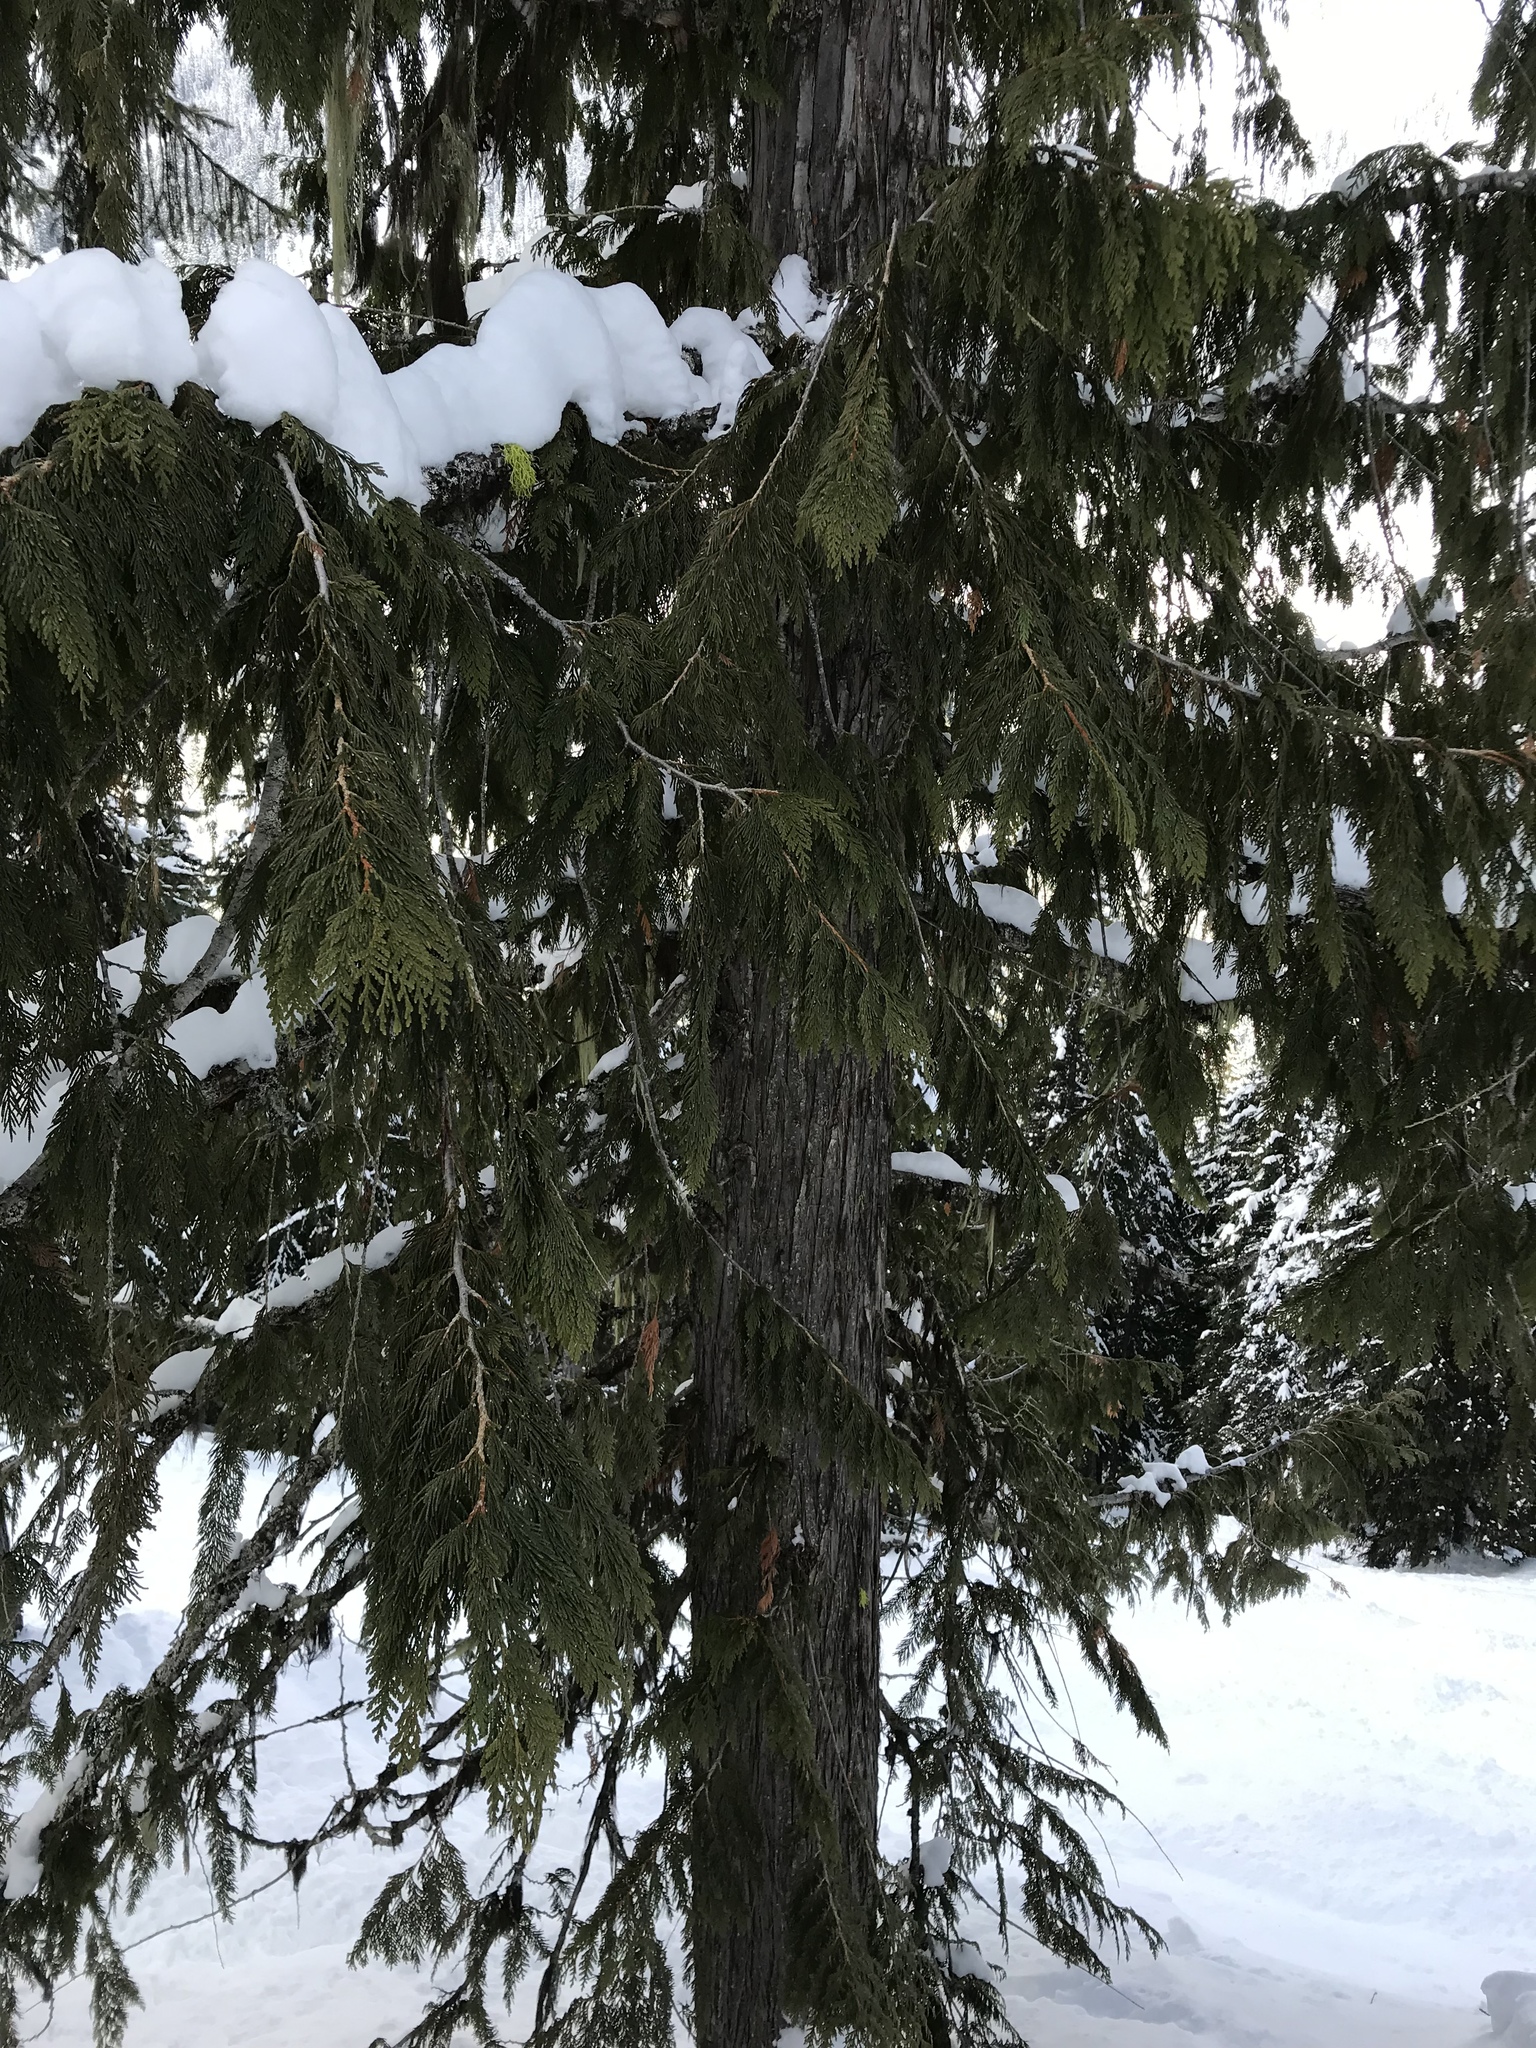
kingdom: Plantae
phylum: Tracheophyta
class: Pinopsida
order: Pinales
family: Cupressaceae
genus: Thuja
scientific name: Thuja plicata
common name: Western red-cedar
